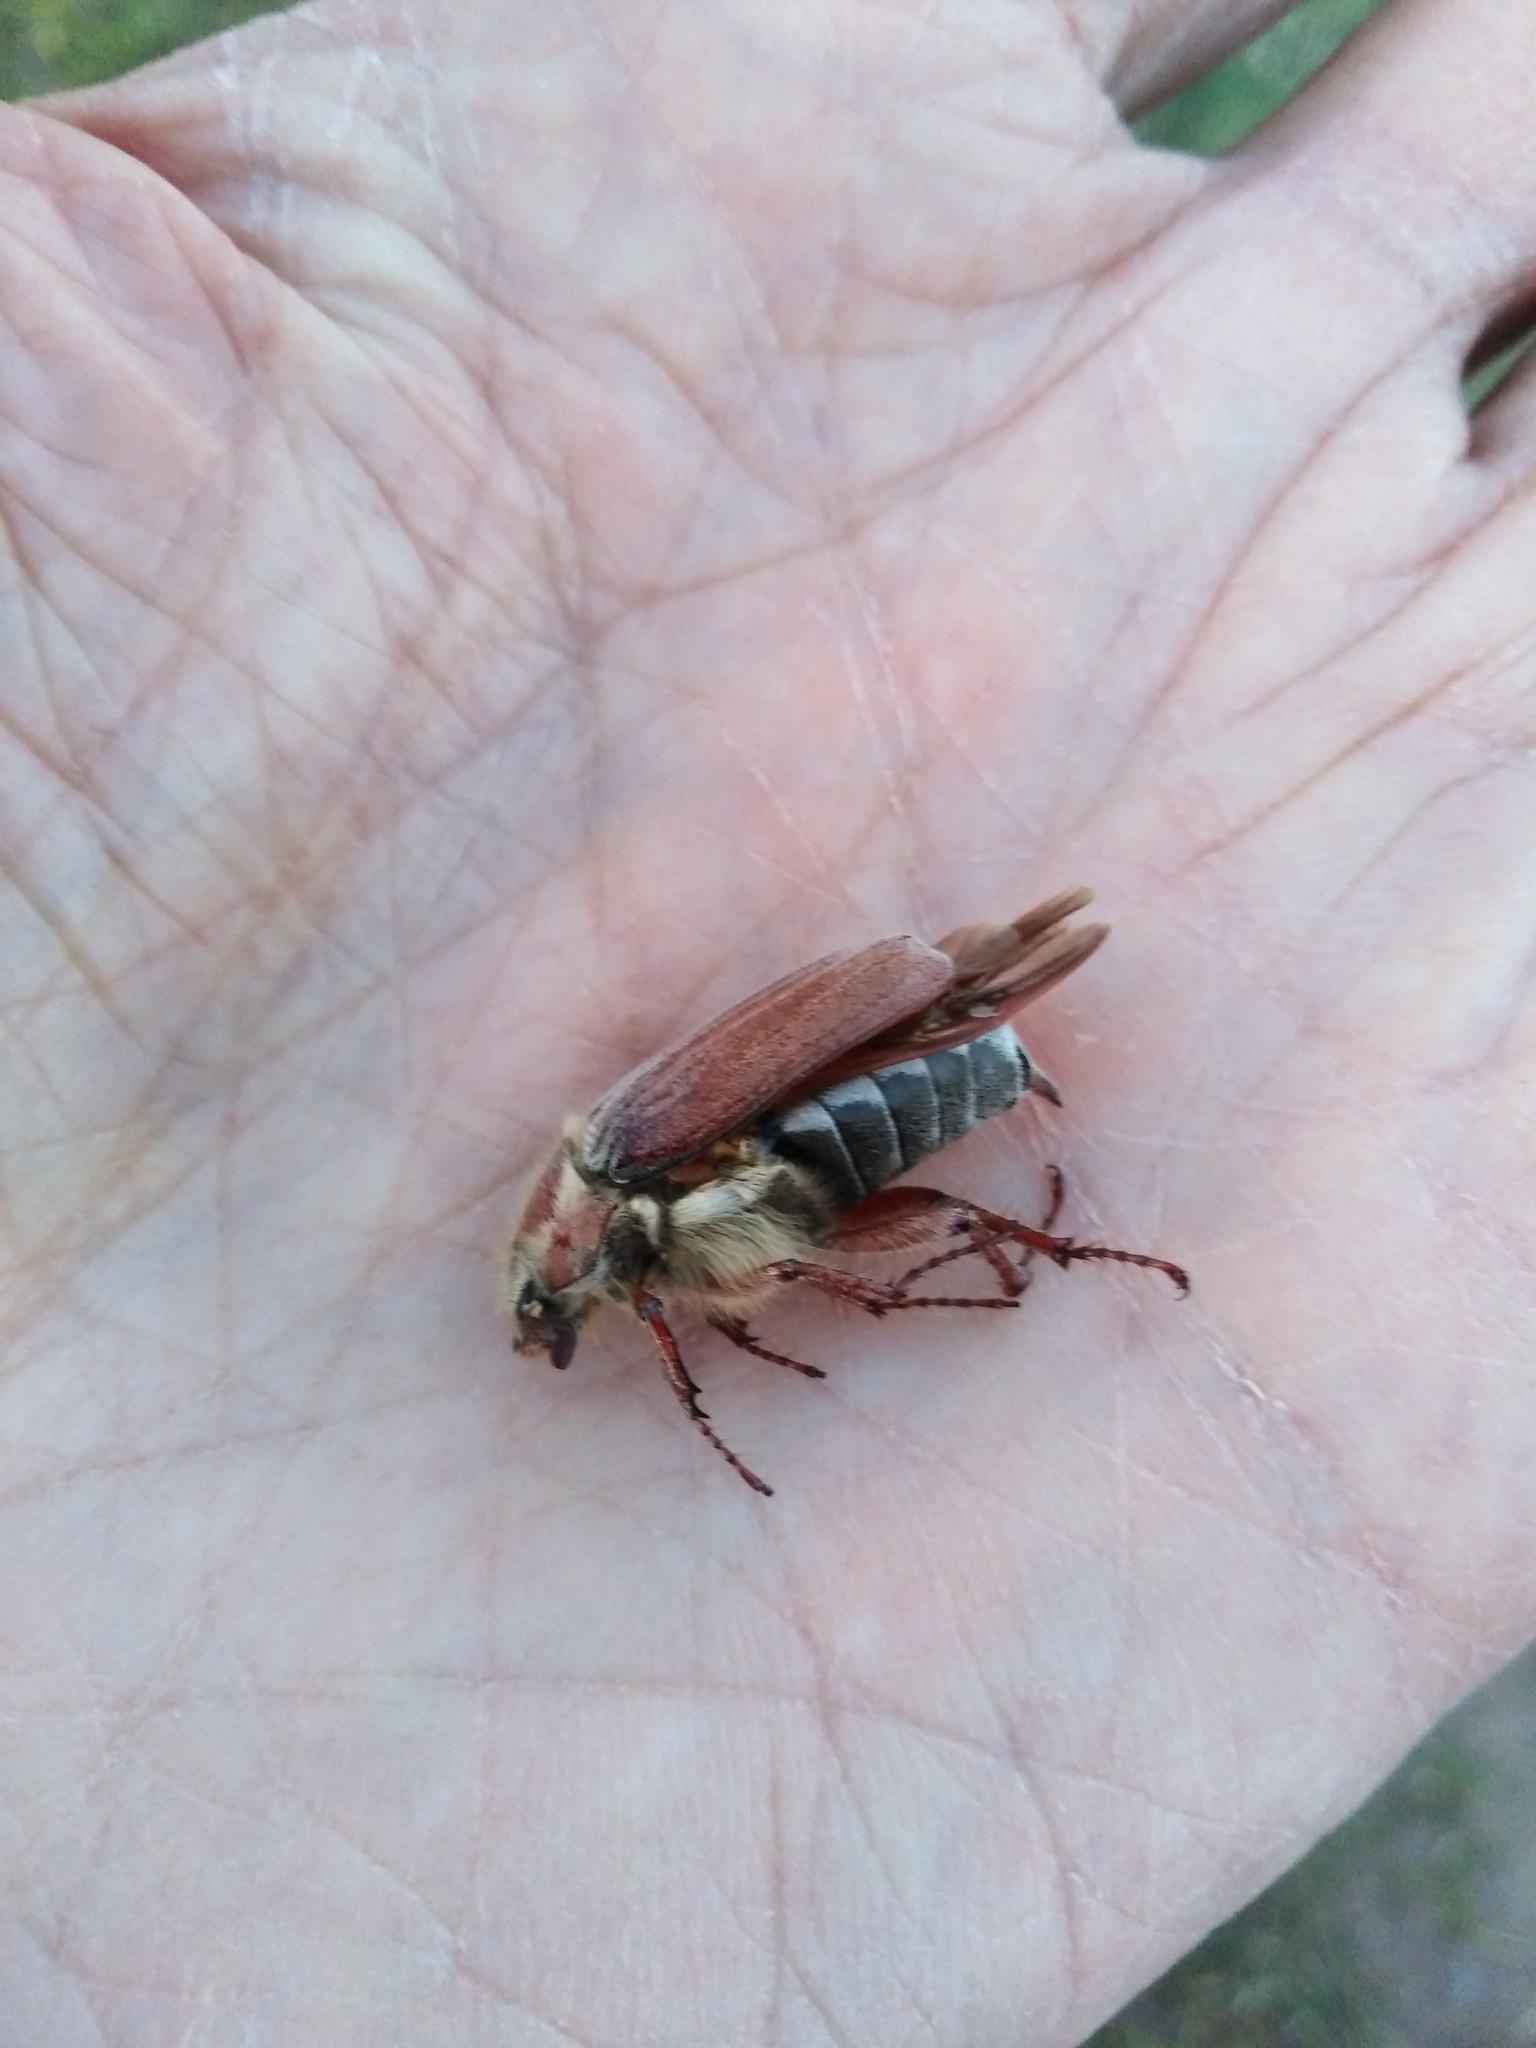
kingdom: Animalia
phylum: Arthropoda
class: Insecta
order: Coleoptera
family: Scarabaeidae
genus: Melolontha
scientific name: Melolontha hippocastani
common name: Chestnut cockchafer
